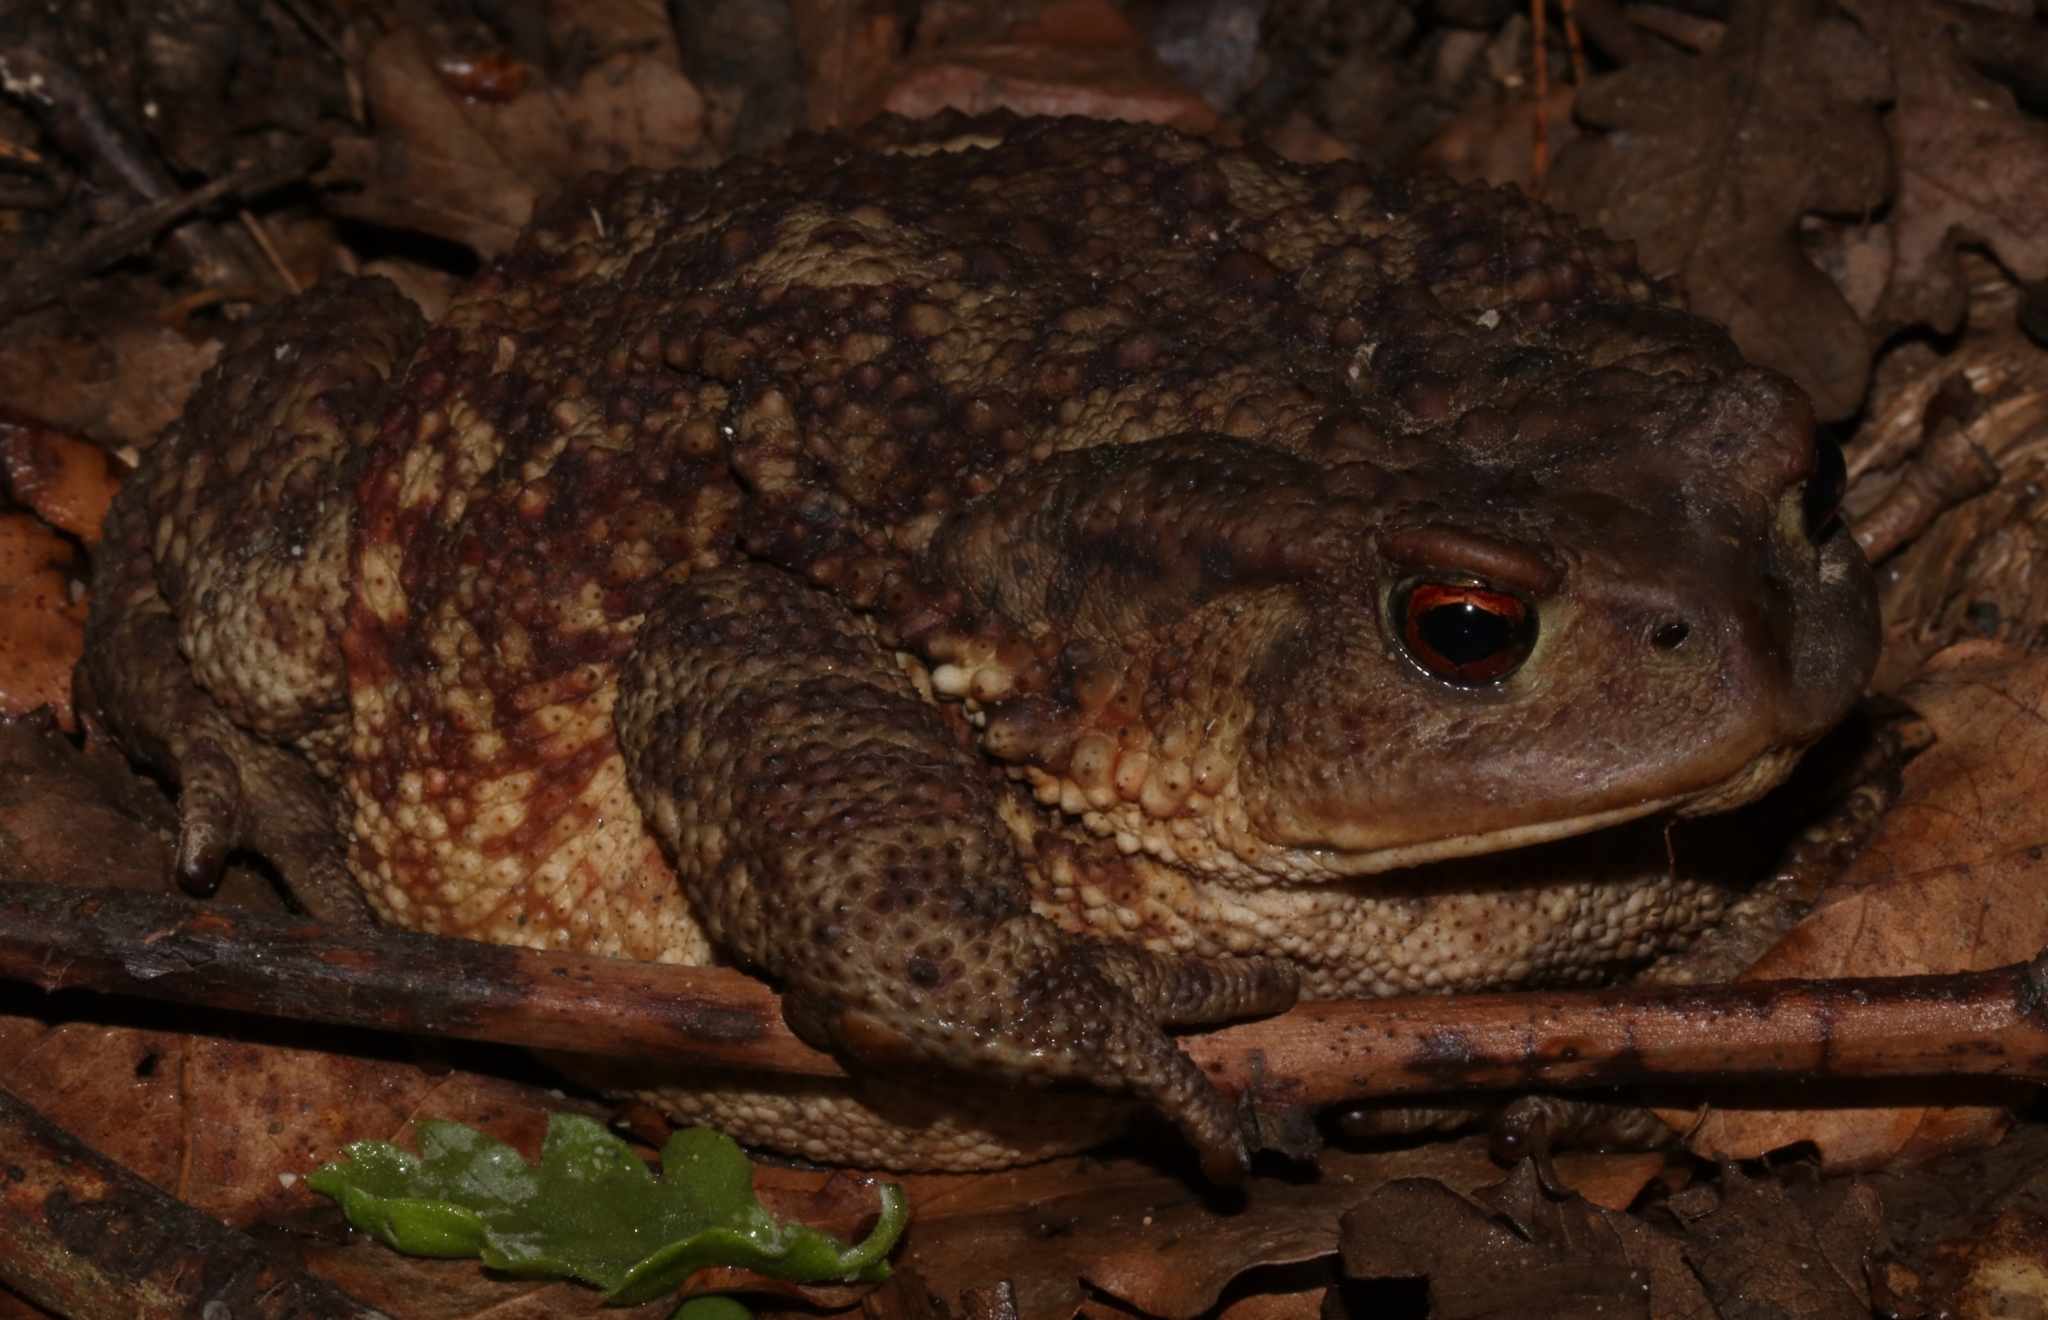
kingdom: Animalia
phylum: Chordata
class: Amphibia
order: Anura
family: Bufonidae
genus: Bufo
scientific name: Bufo bufo
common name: Common toad
